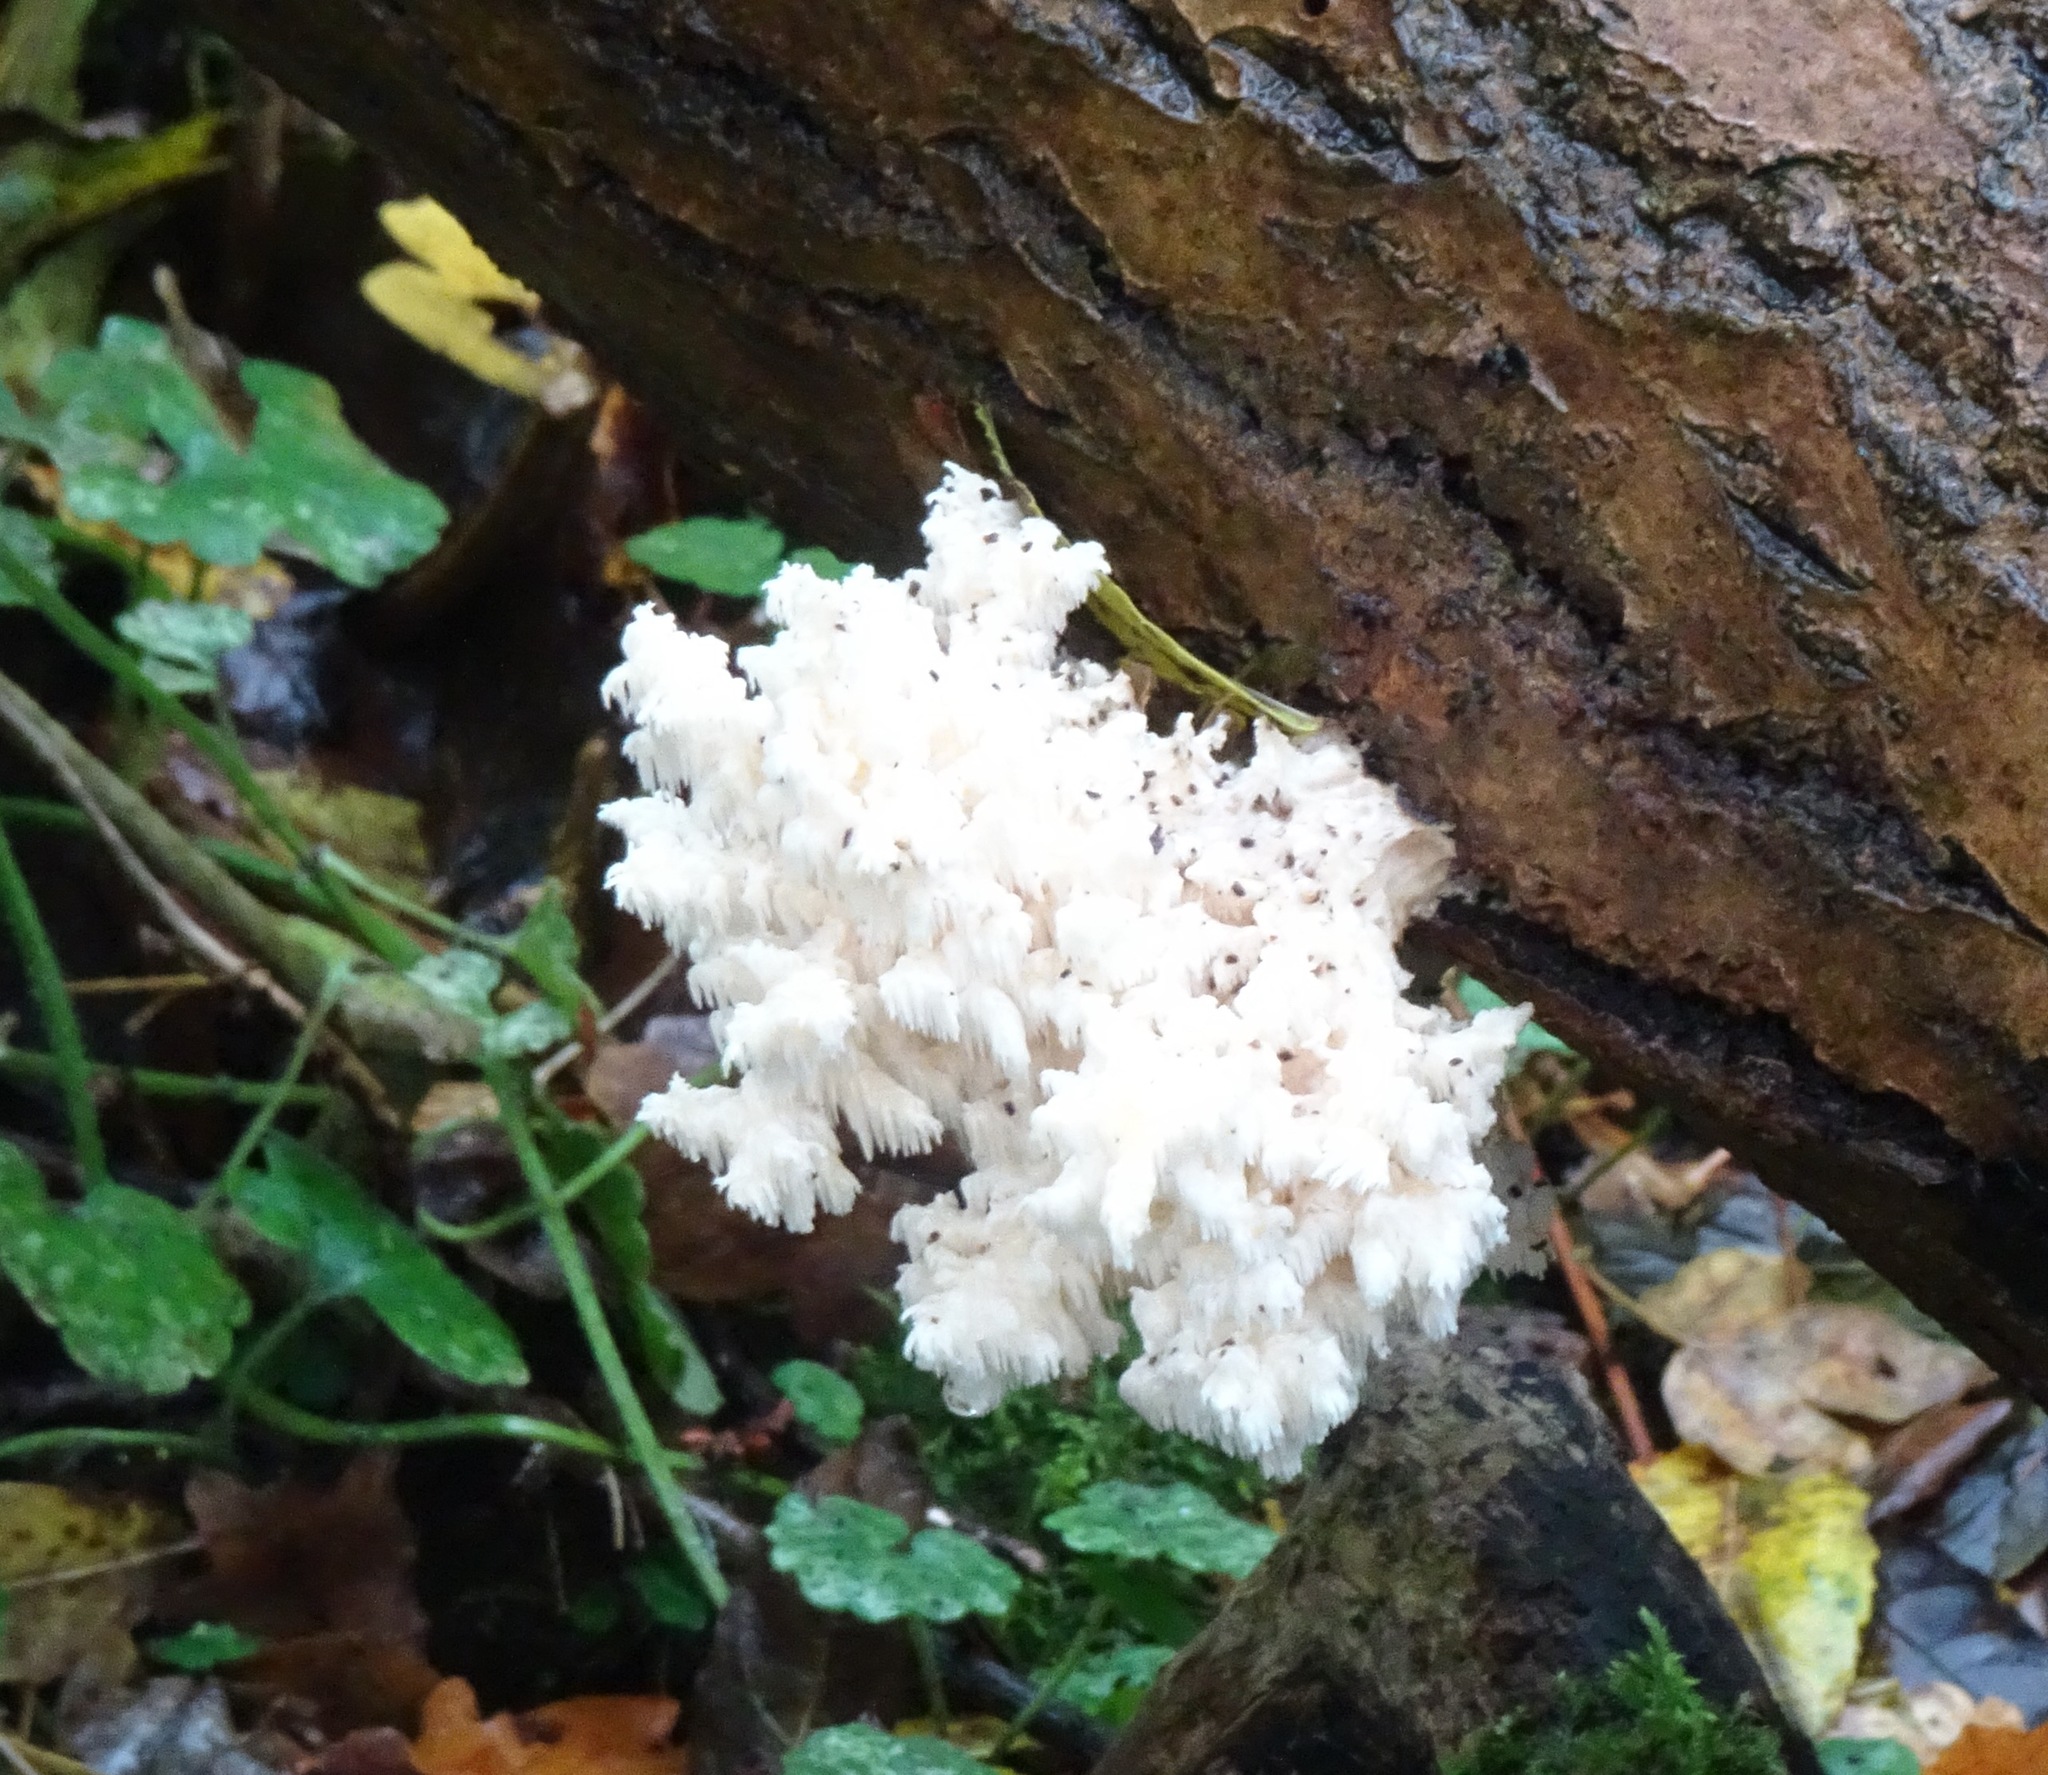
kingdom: Fungi
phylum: Basidiomycota
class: Agaricomycetes
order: Russulales
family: Hericiaceae
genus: Hericium
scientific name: Hericium coralloides
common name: Coral tooth
